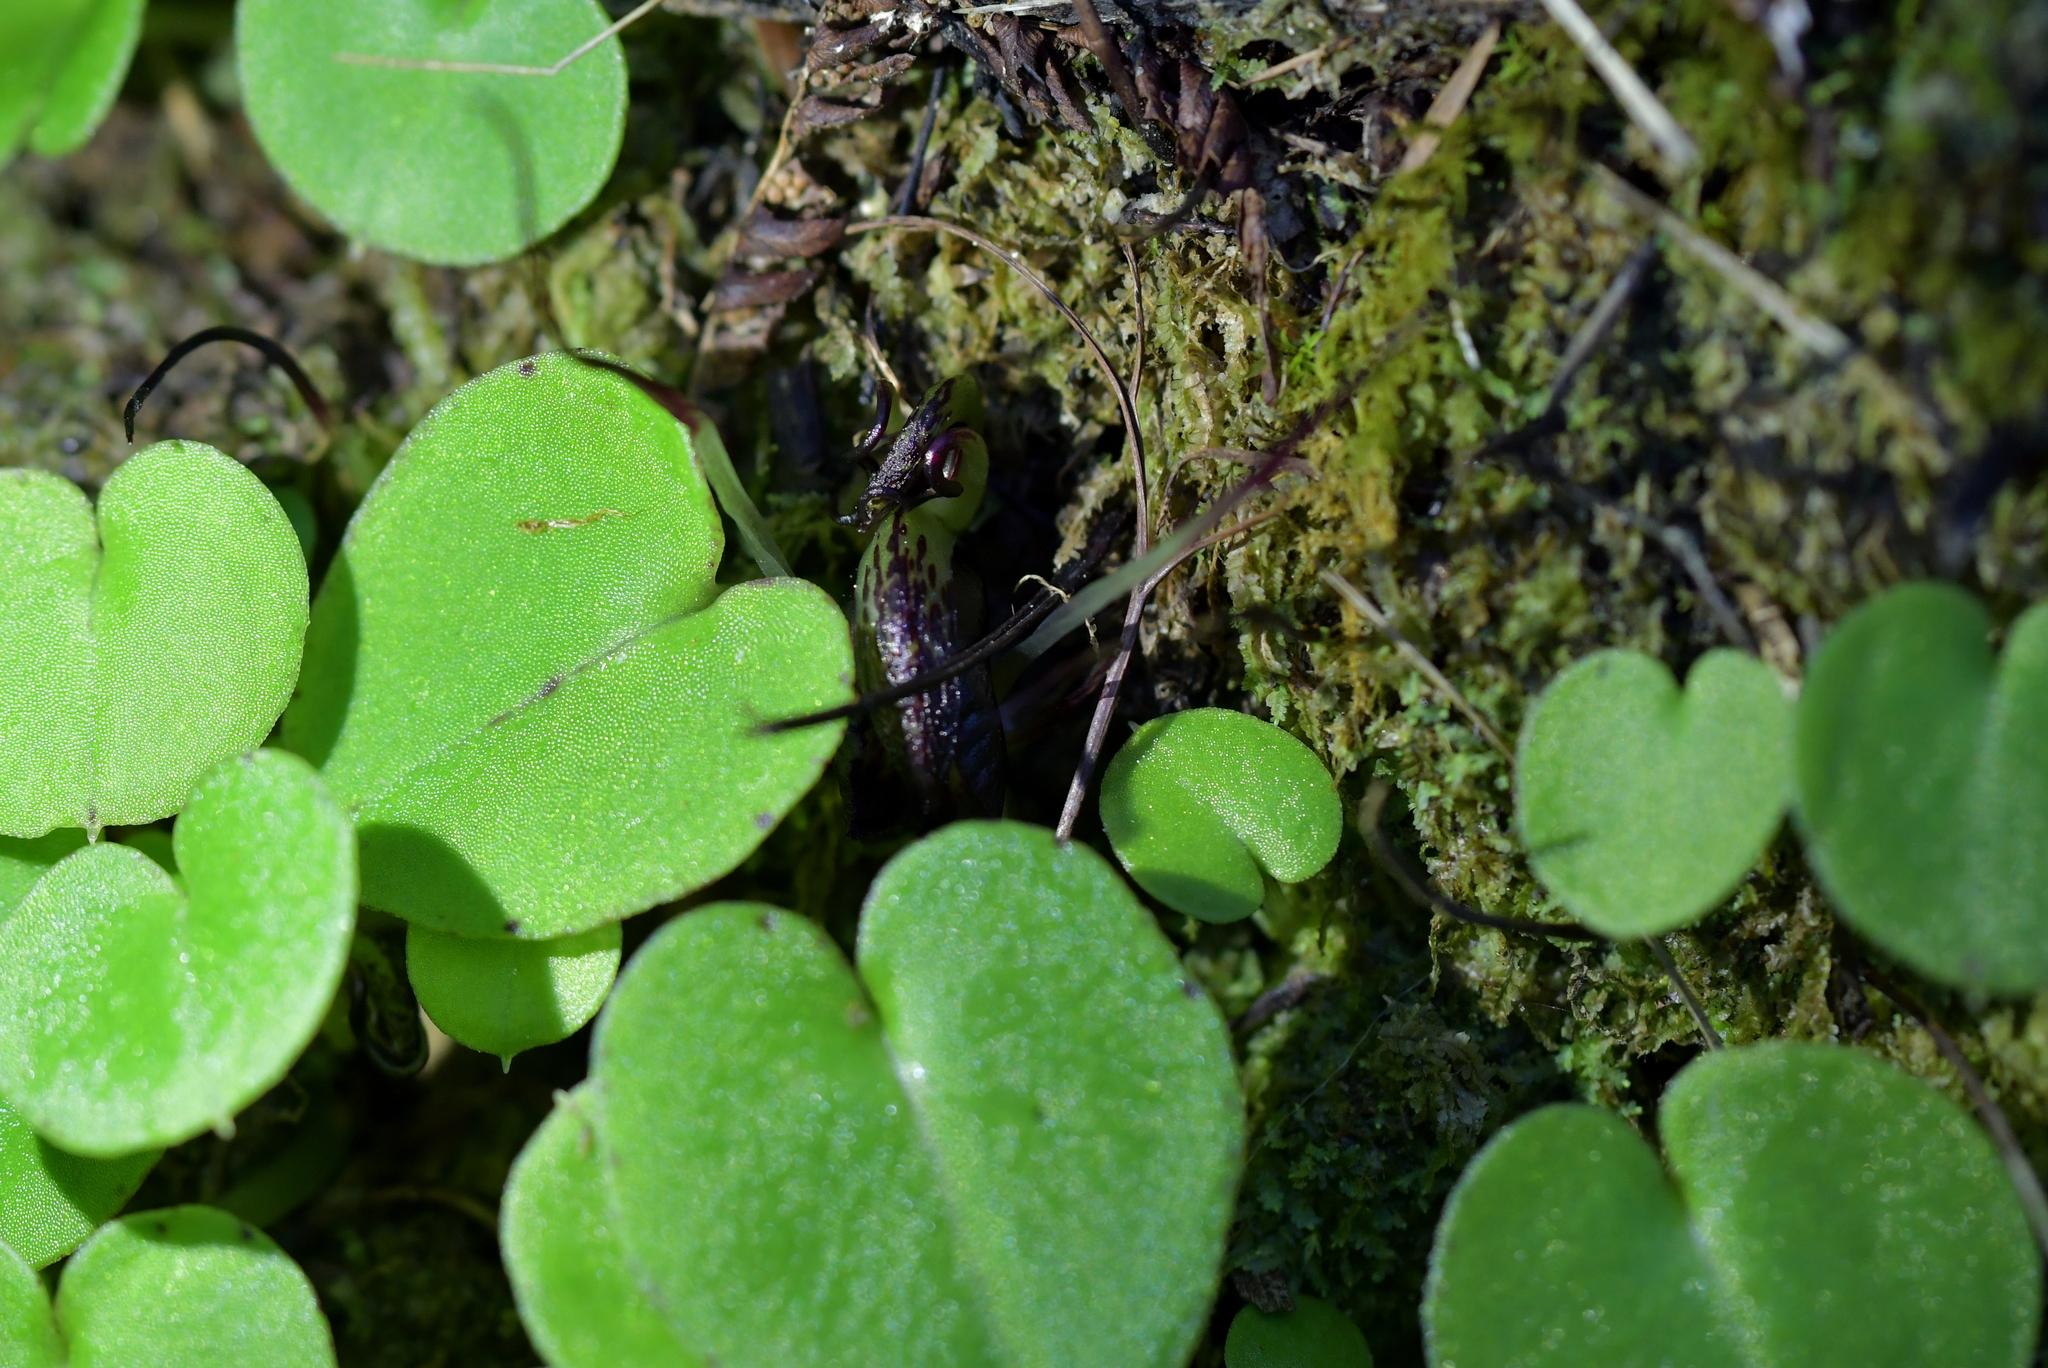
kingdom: Plantae
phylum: Tracheophyta
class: Liliopsida
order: Asparagales
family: Orchidaceae
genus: Corybas
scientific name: Corybas macranthus
